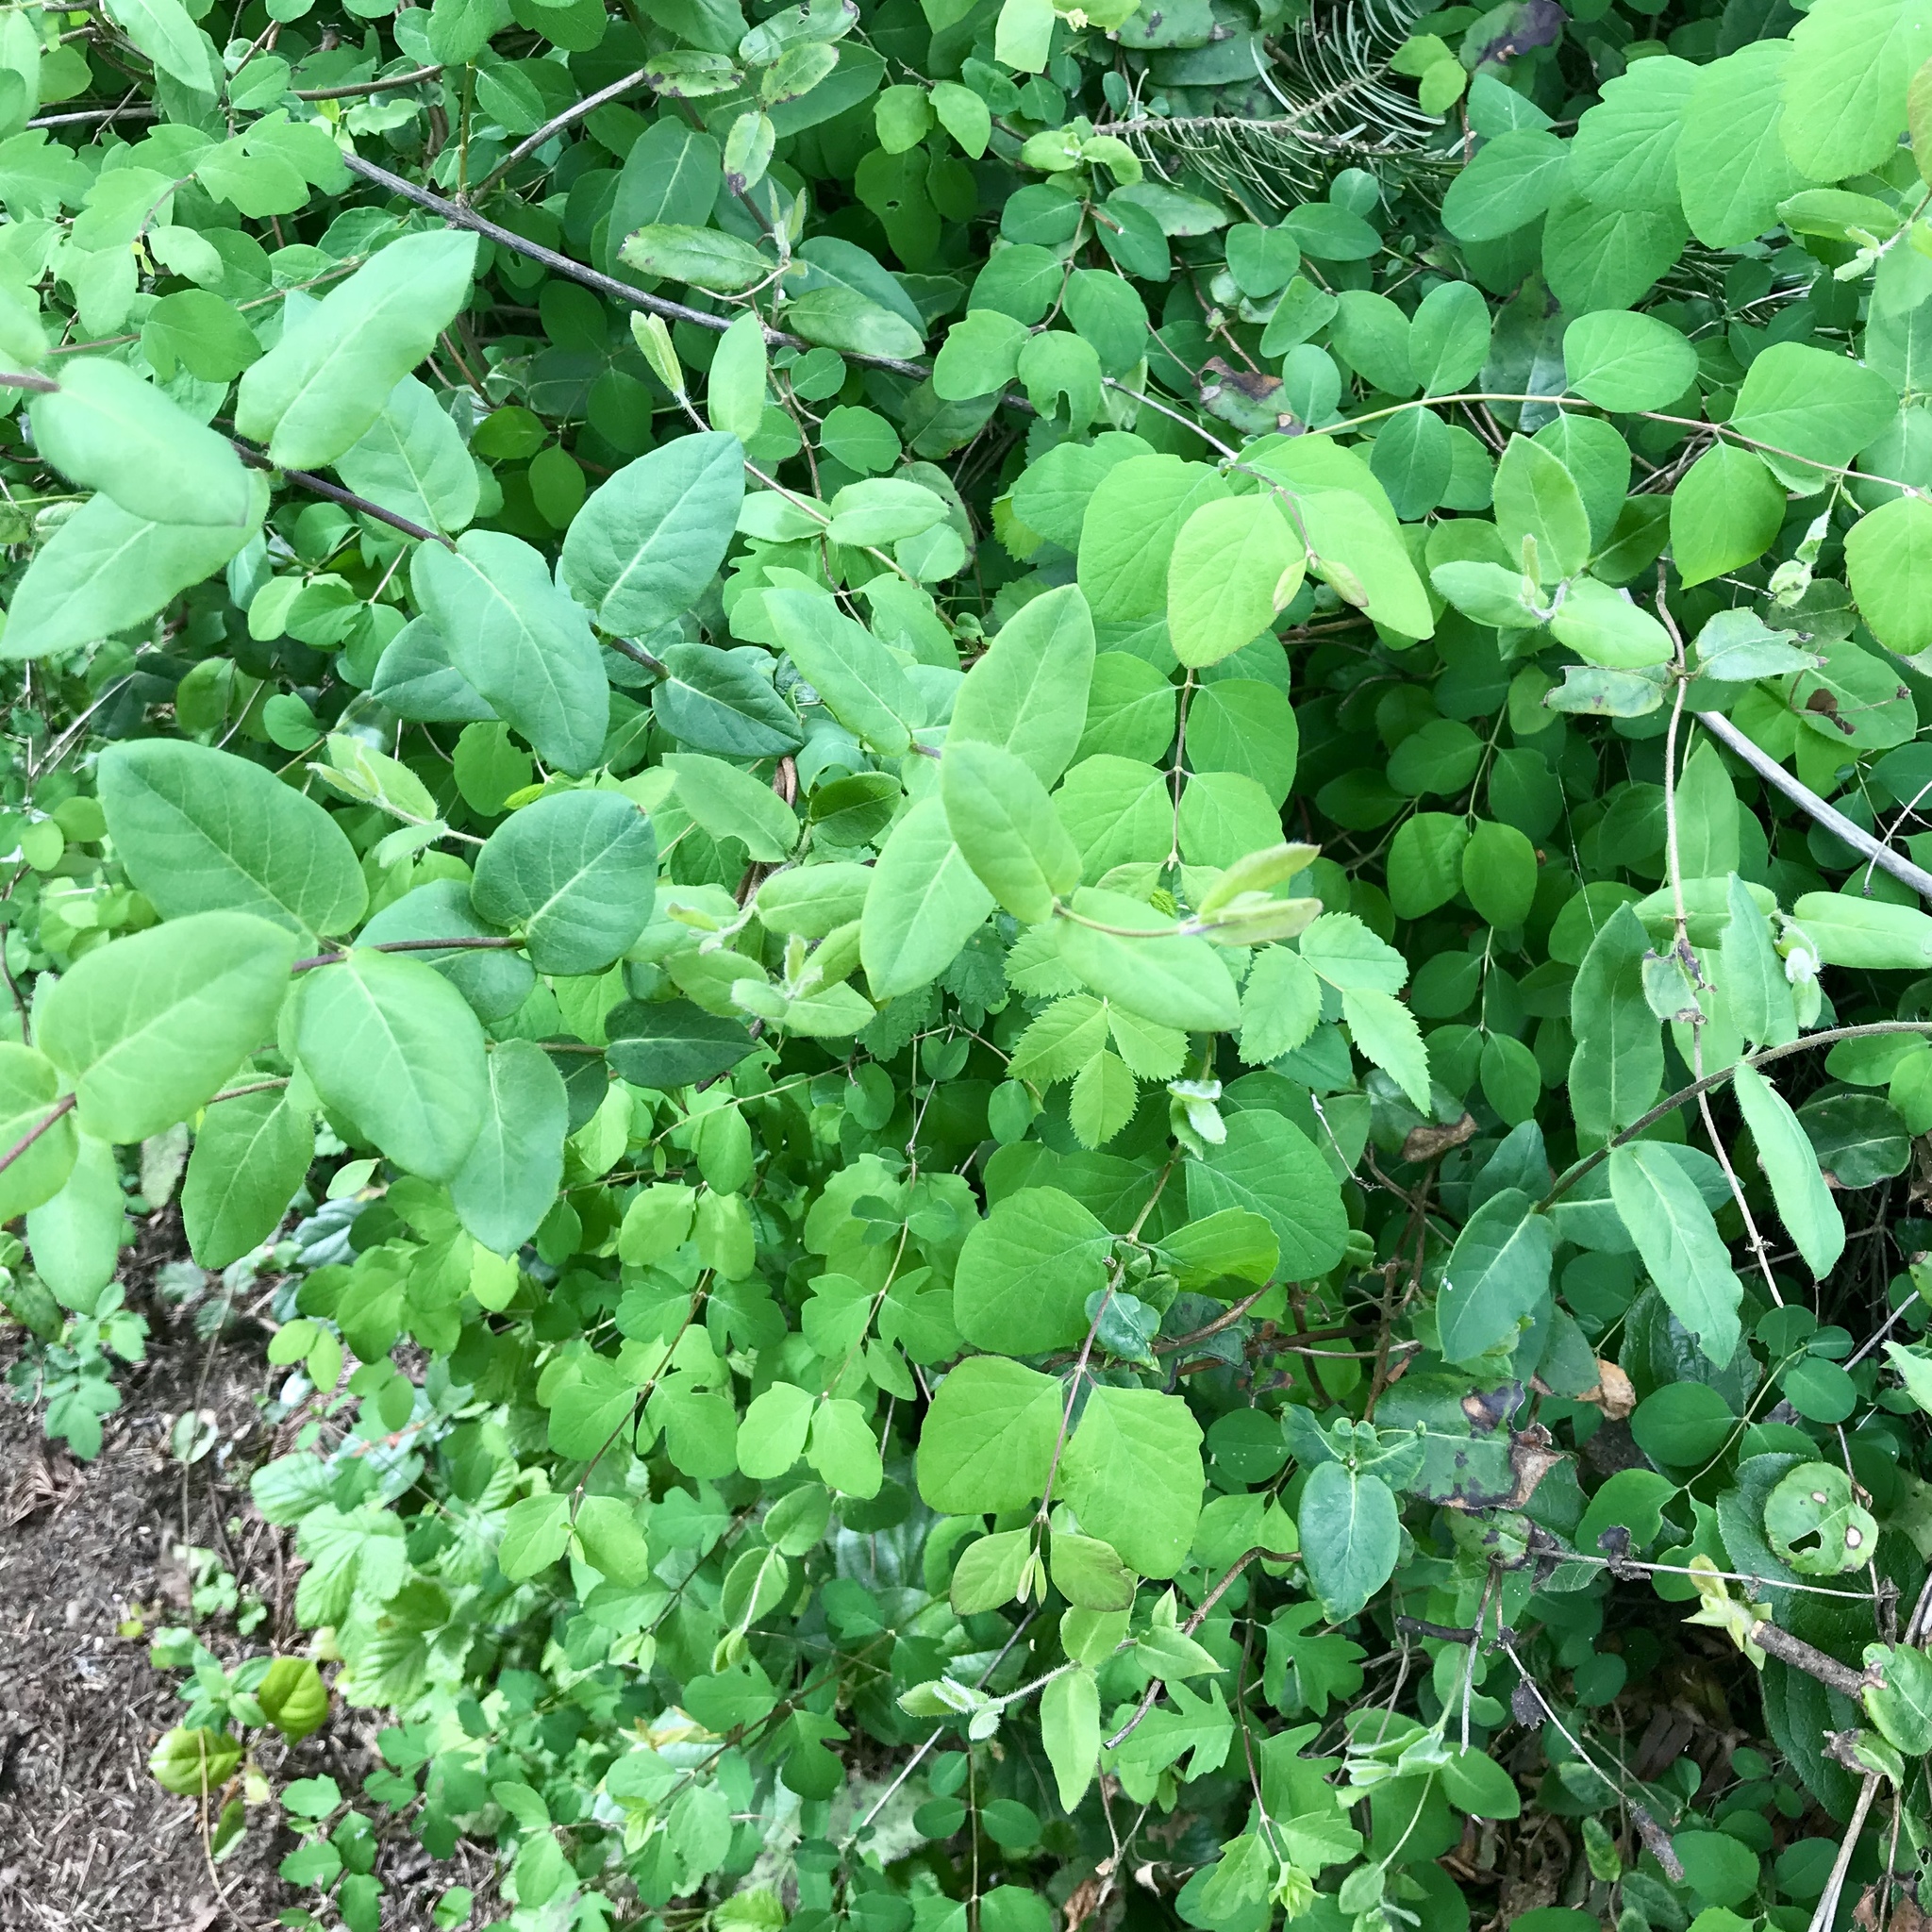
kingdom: Plantae
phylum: Tracheophyta
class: Magnoliopsida
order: Dipsacales
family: Caprifoliaceae
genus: Lonicera
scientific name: Lonicera hispidula
